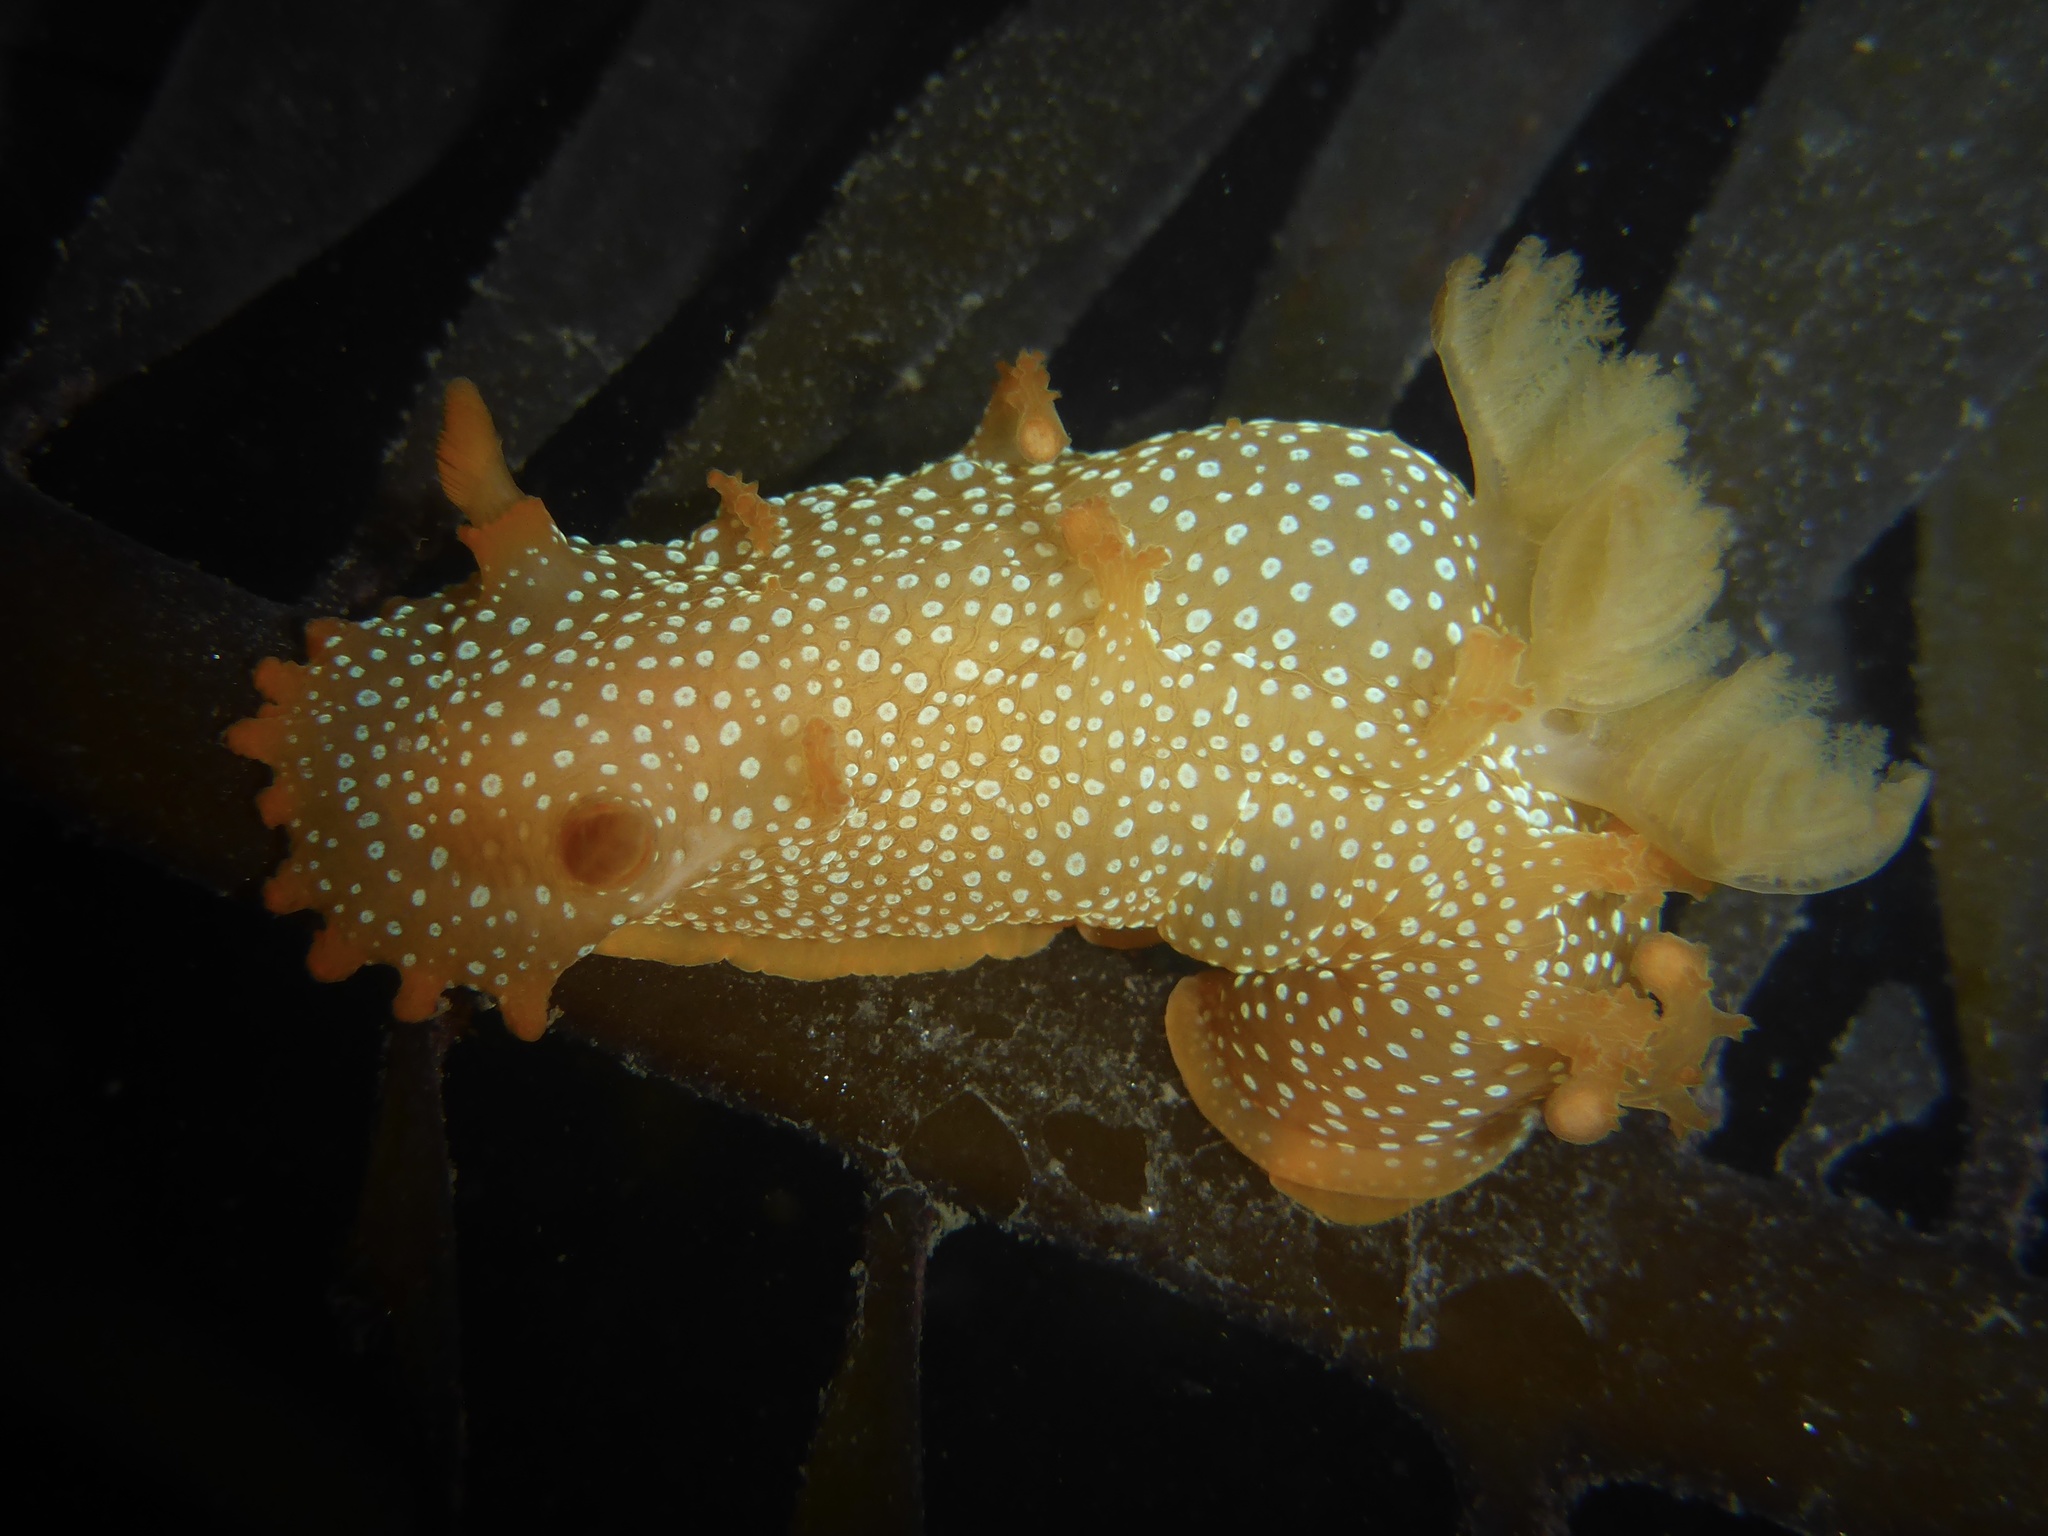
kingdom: Animalia
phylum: Mollusca
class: Gastropoda
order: Nudibranchia
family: Polyceridae
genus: Triopha
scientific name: Triopha maculata
